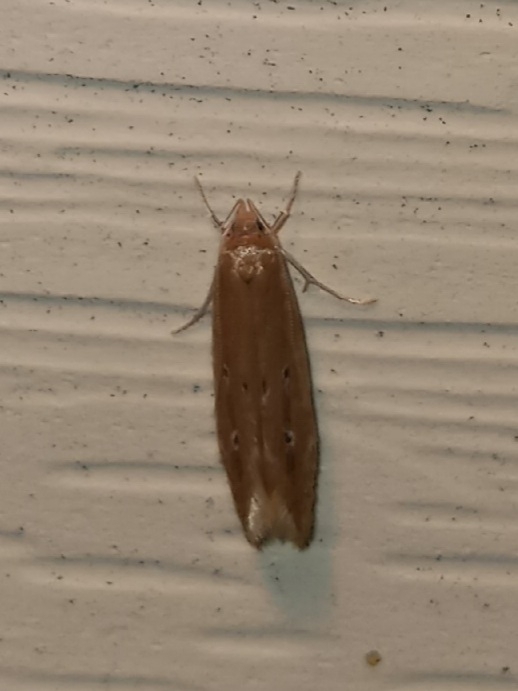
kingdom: Animalia
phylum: Arthropoda
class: Insecta
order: Lepidoptera
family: Cosmopterigidae
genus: Limnaecia
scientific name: Limnaecia phragmitella
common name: Bulrush cosmet
